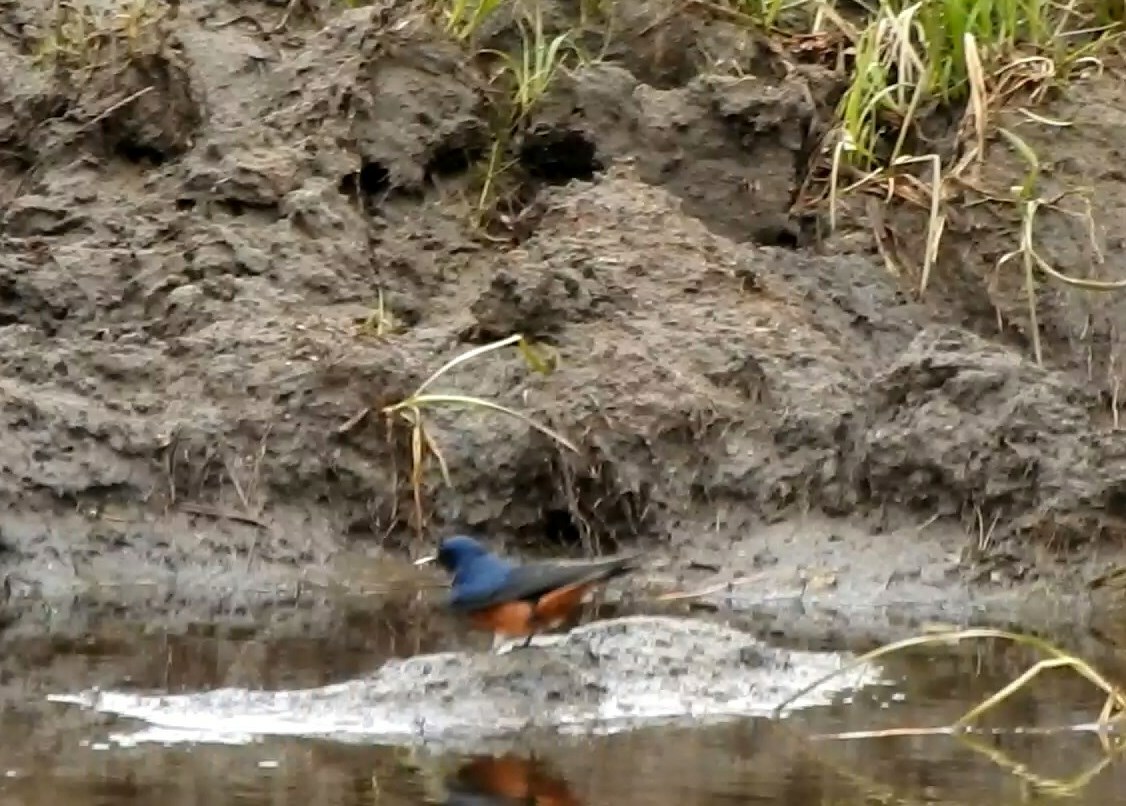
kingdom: Animalia
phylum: Chordata
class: Aves
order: Passeriformes
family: Hirundinidae
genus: Hirundo
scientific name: Hirundo rustica
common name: Barn swallow
